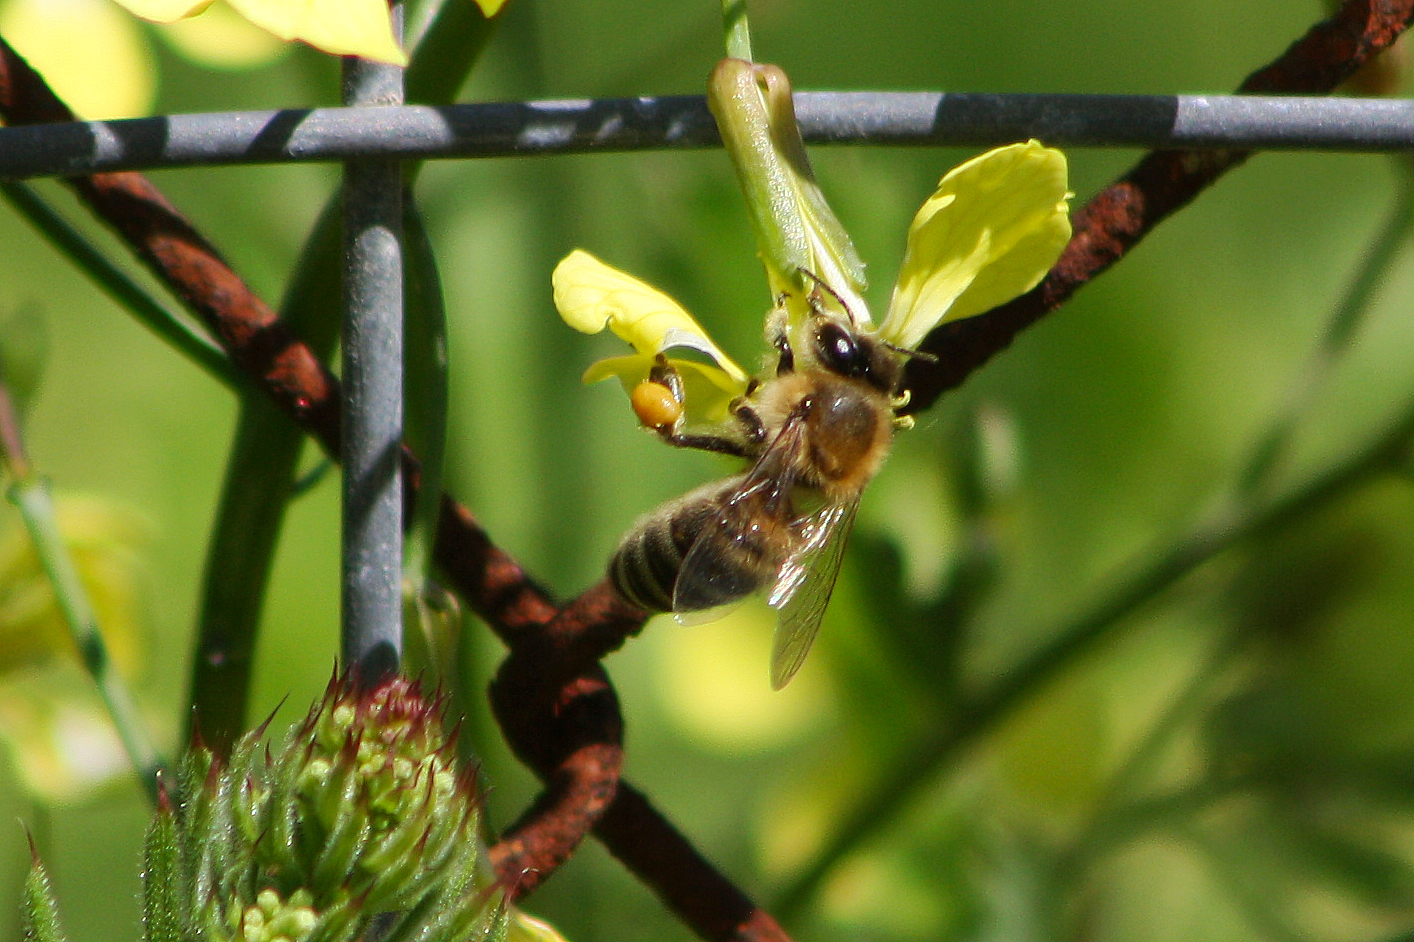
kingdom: Animalia
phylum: Arthropoda
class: Insecta
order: Hymenoptera
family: Apidae
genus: Apis
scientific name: Apis mellifera
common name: Honey bee
